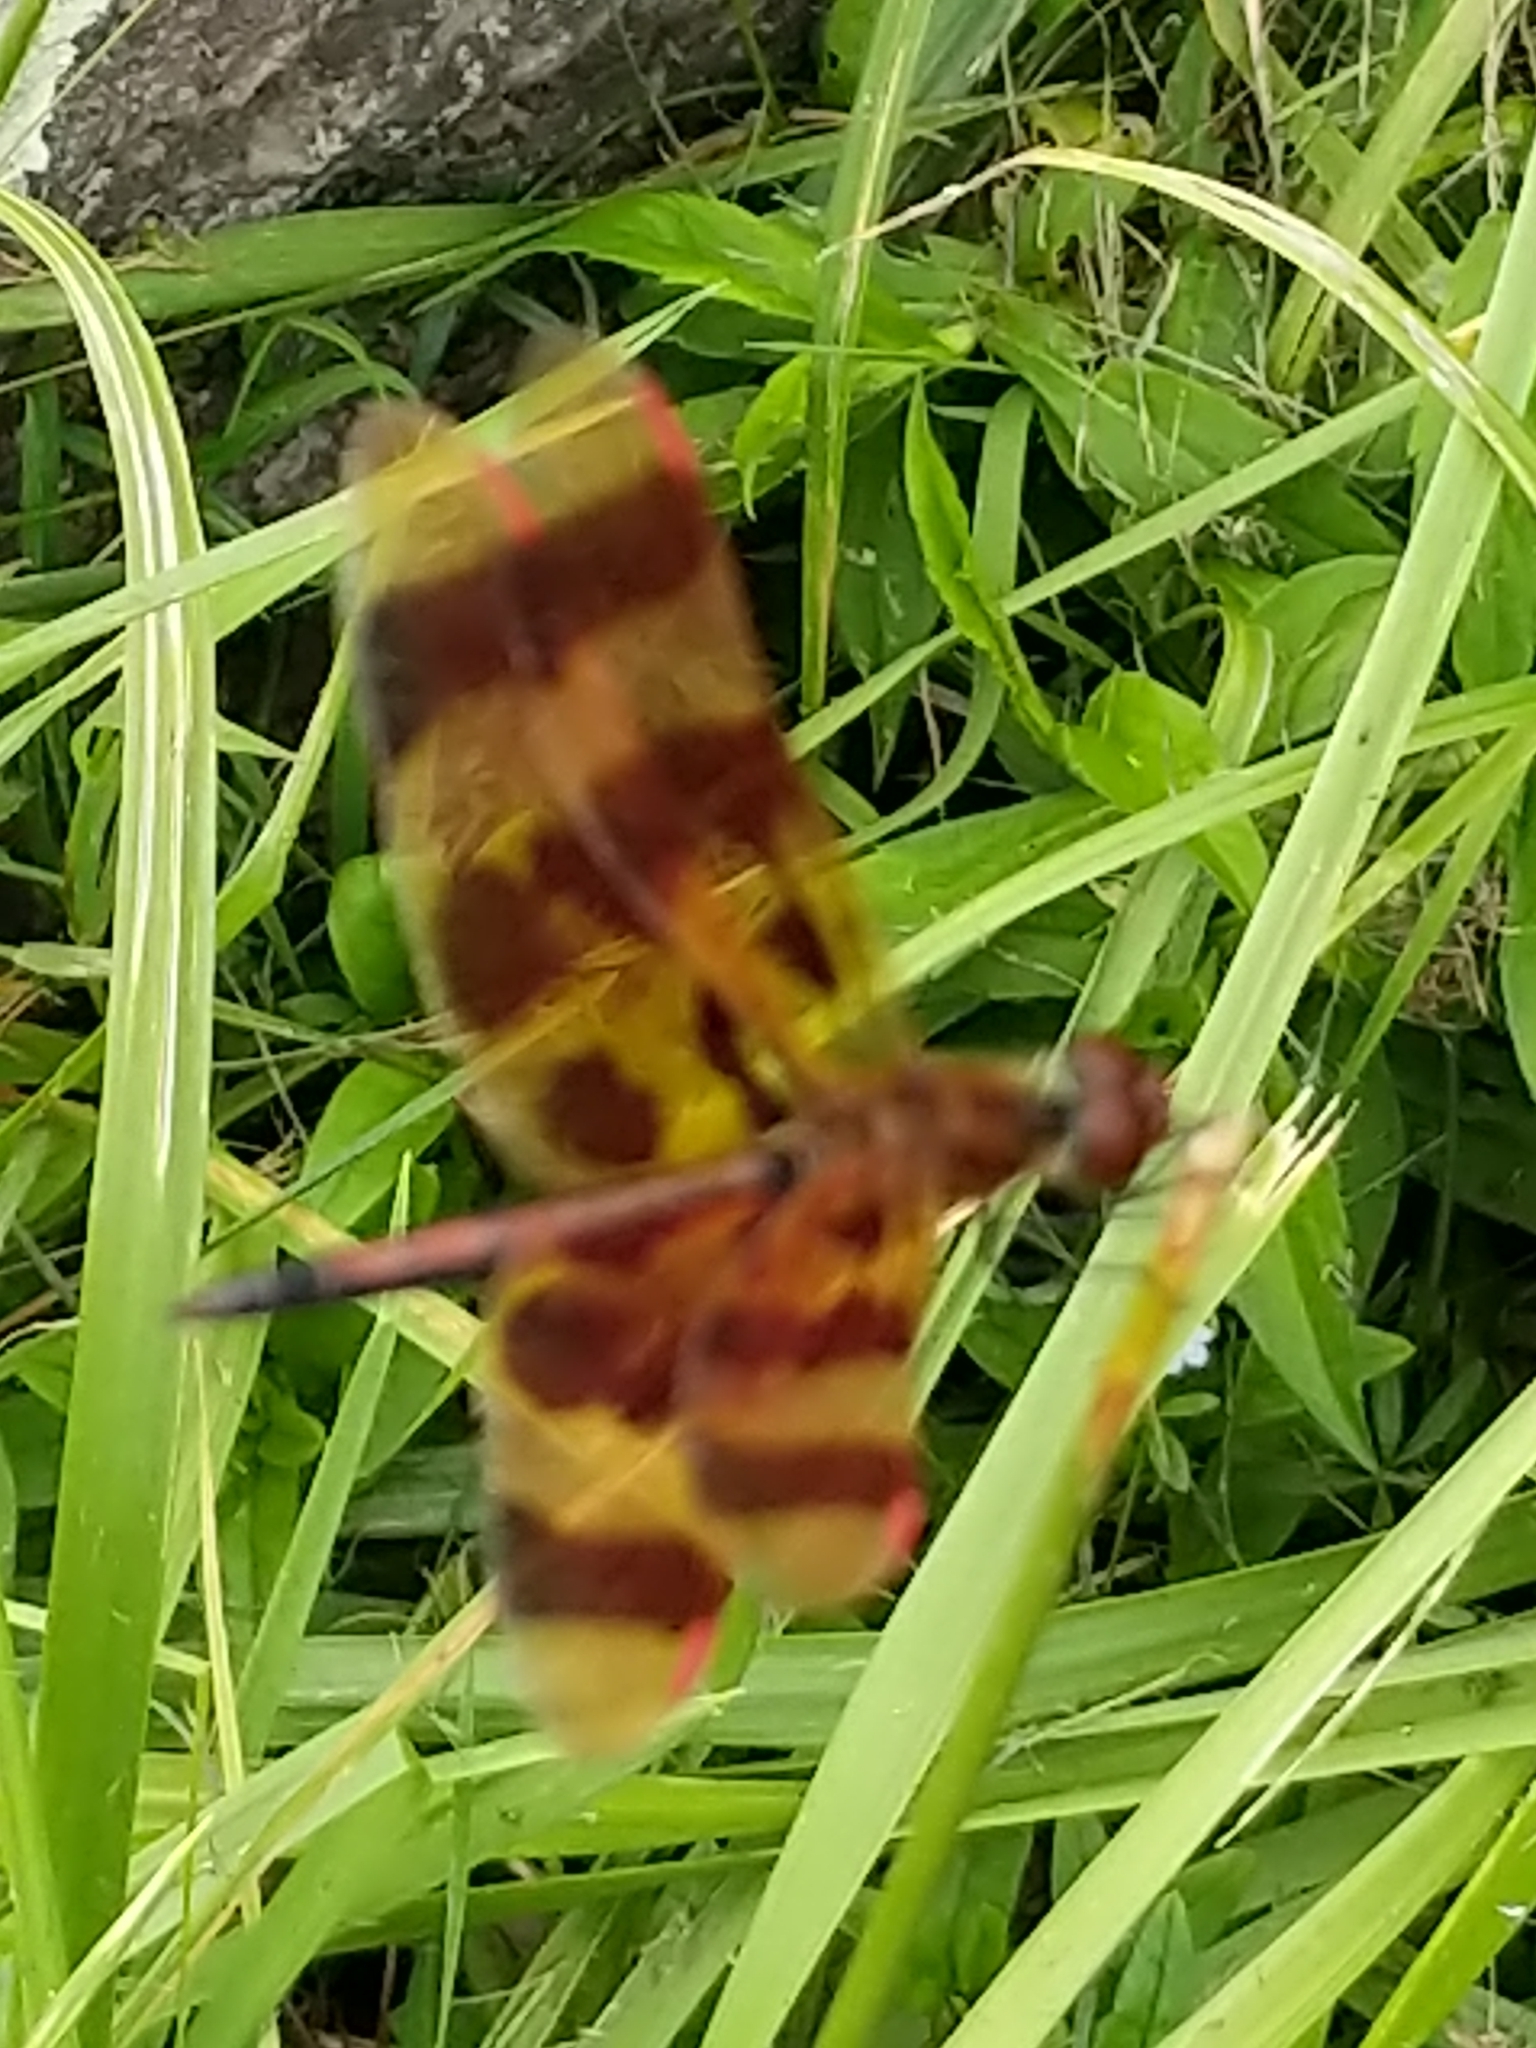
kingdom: Animalia
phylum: Arthropoda
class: Insecta
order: Odonata
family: Libellulidae
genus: Celithemis
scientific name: Celithemis eponina
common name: Halloween pennant
